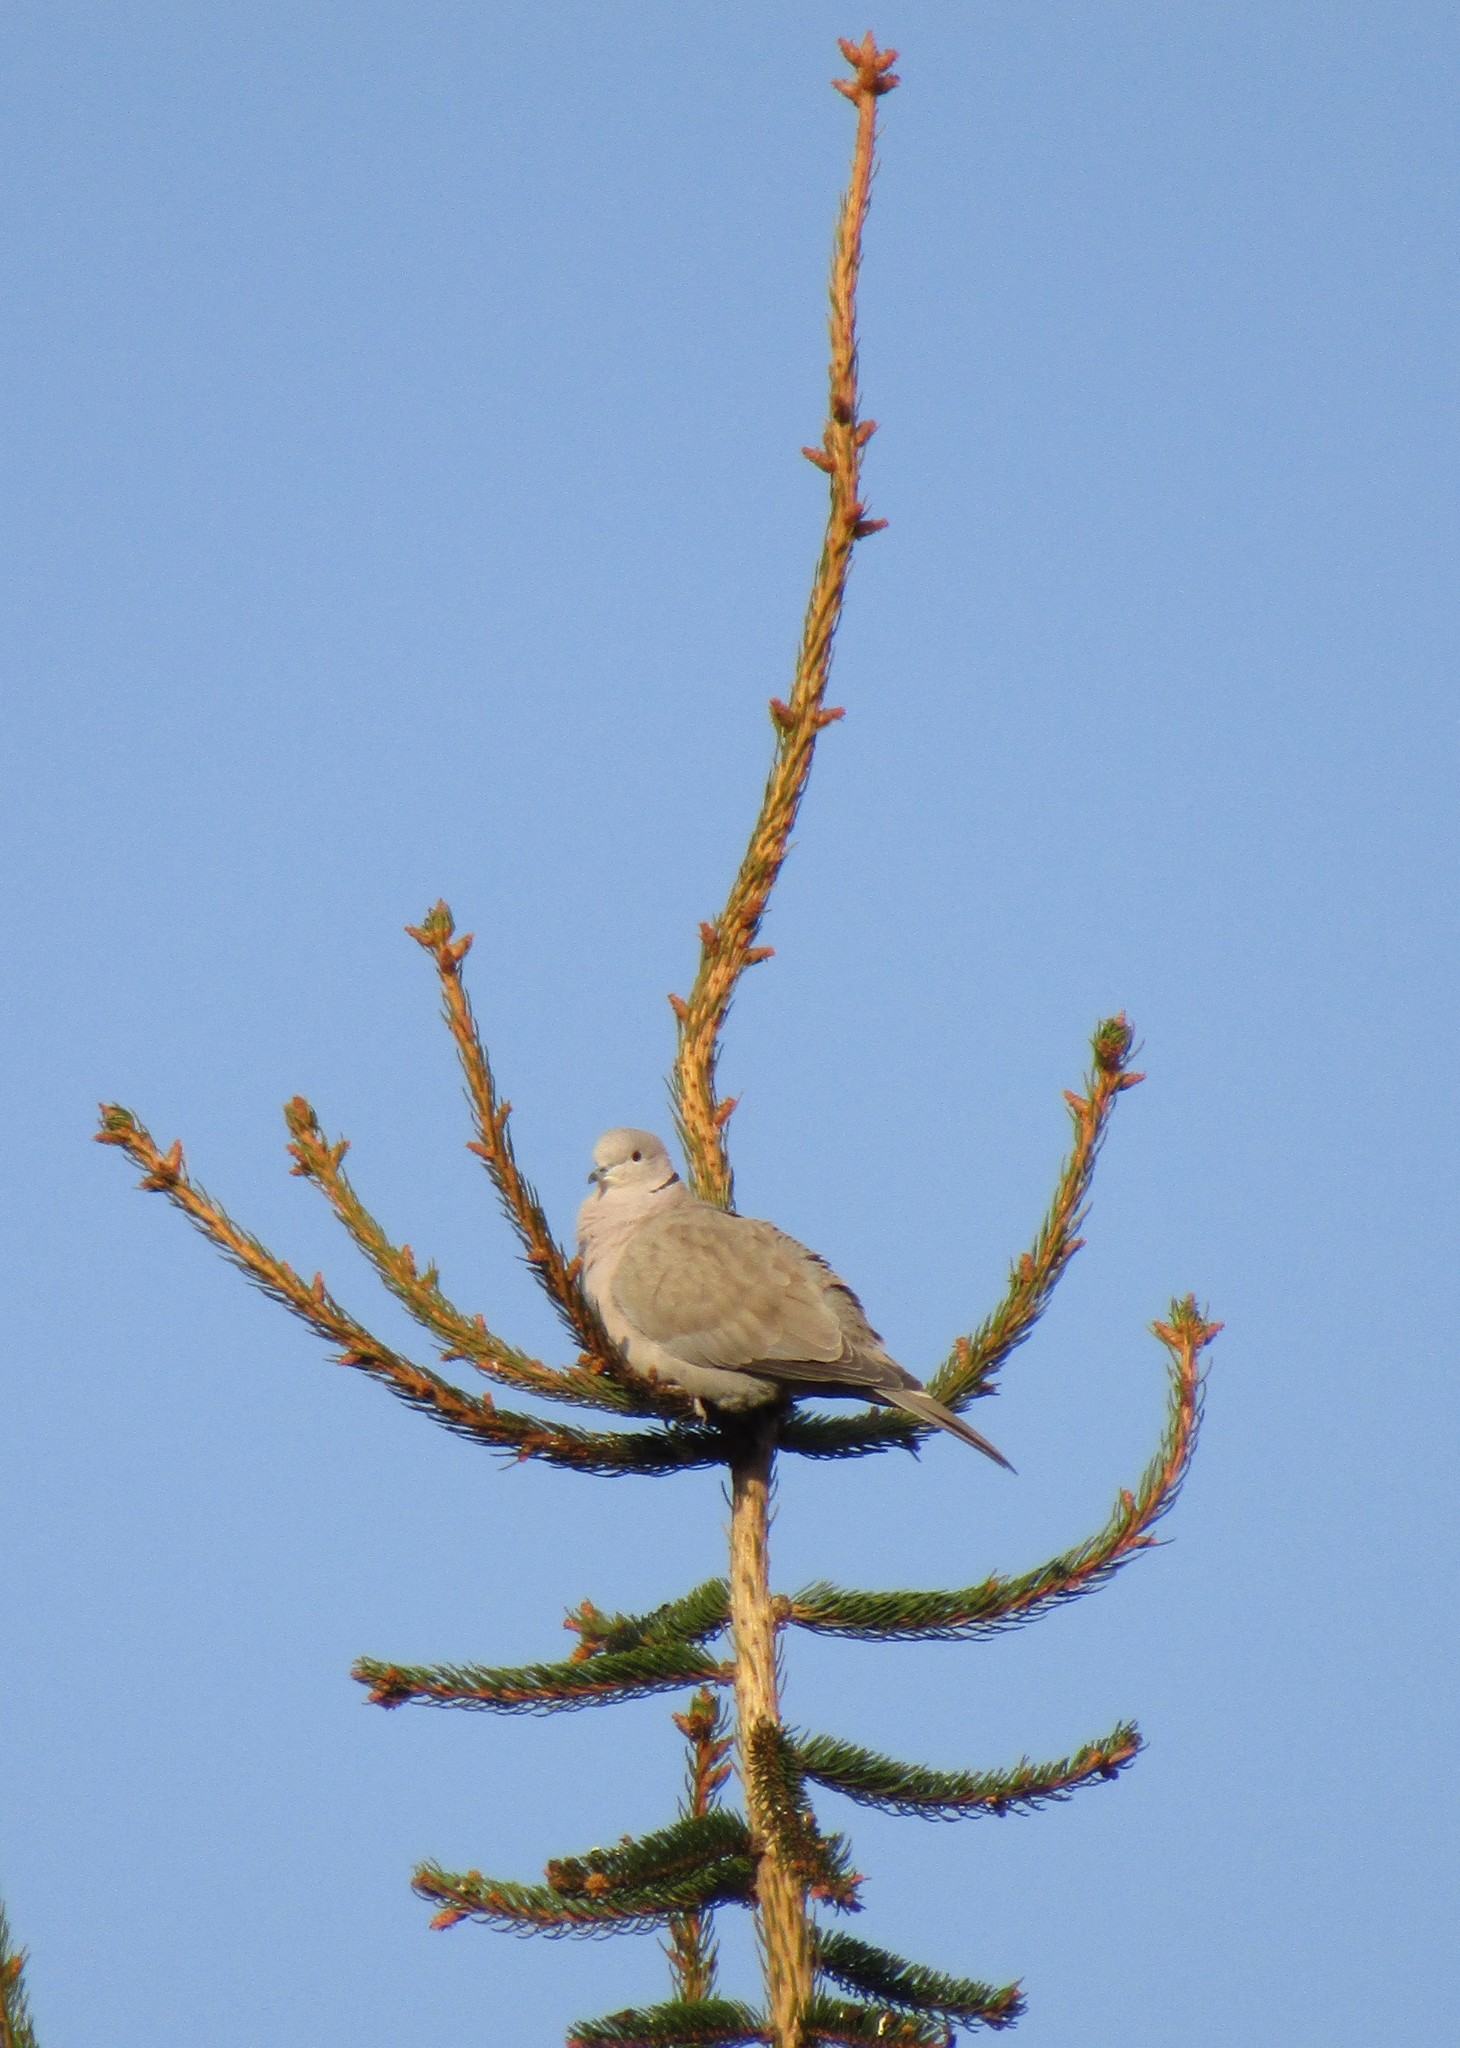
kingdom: Animalia
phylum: Chordata
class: Aves
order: Columbiformes
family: Columbidae
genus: Streptopelia
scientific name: Streptopelia decaocto
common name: Eurasian collared dove
